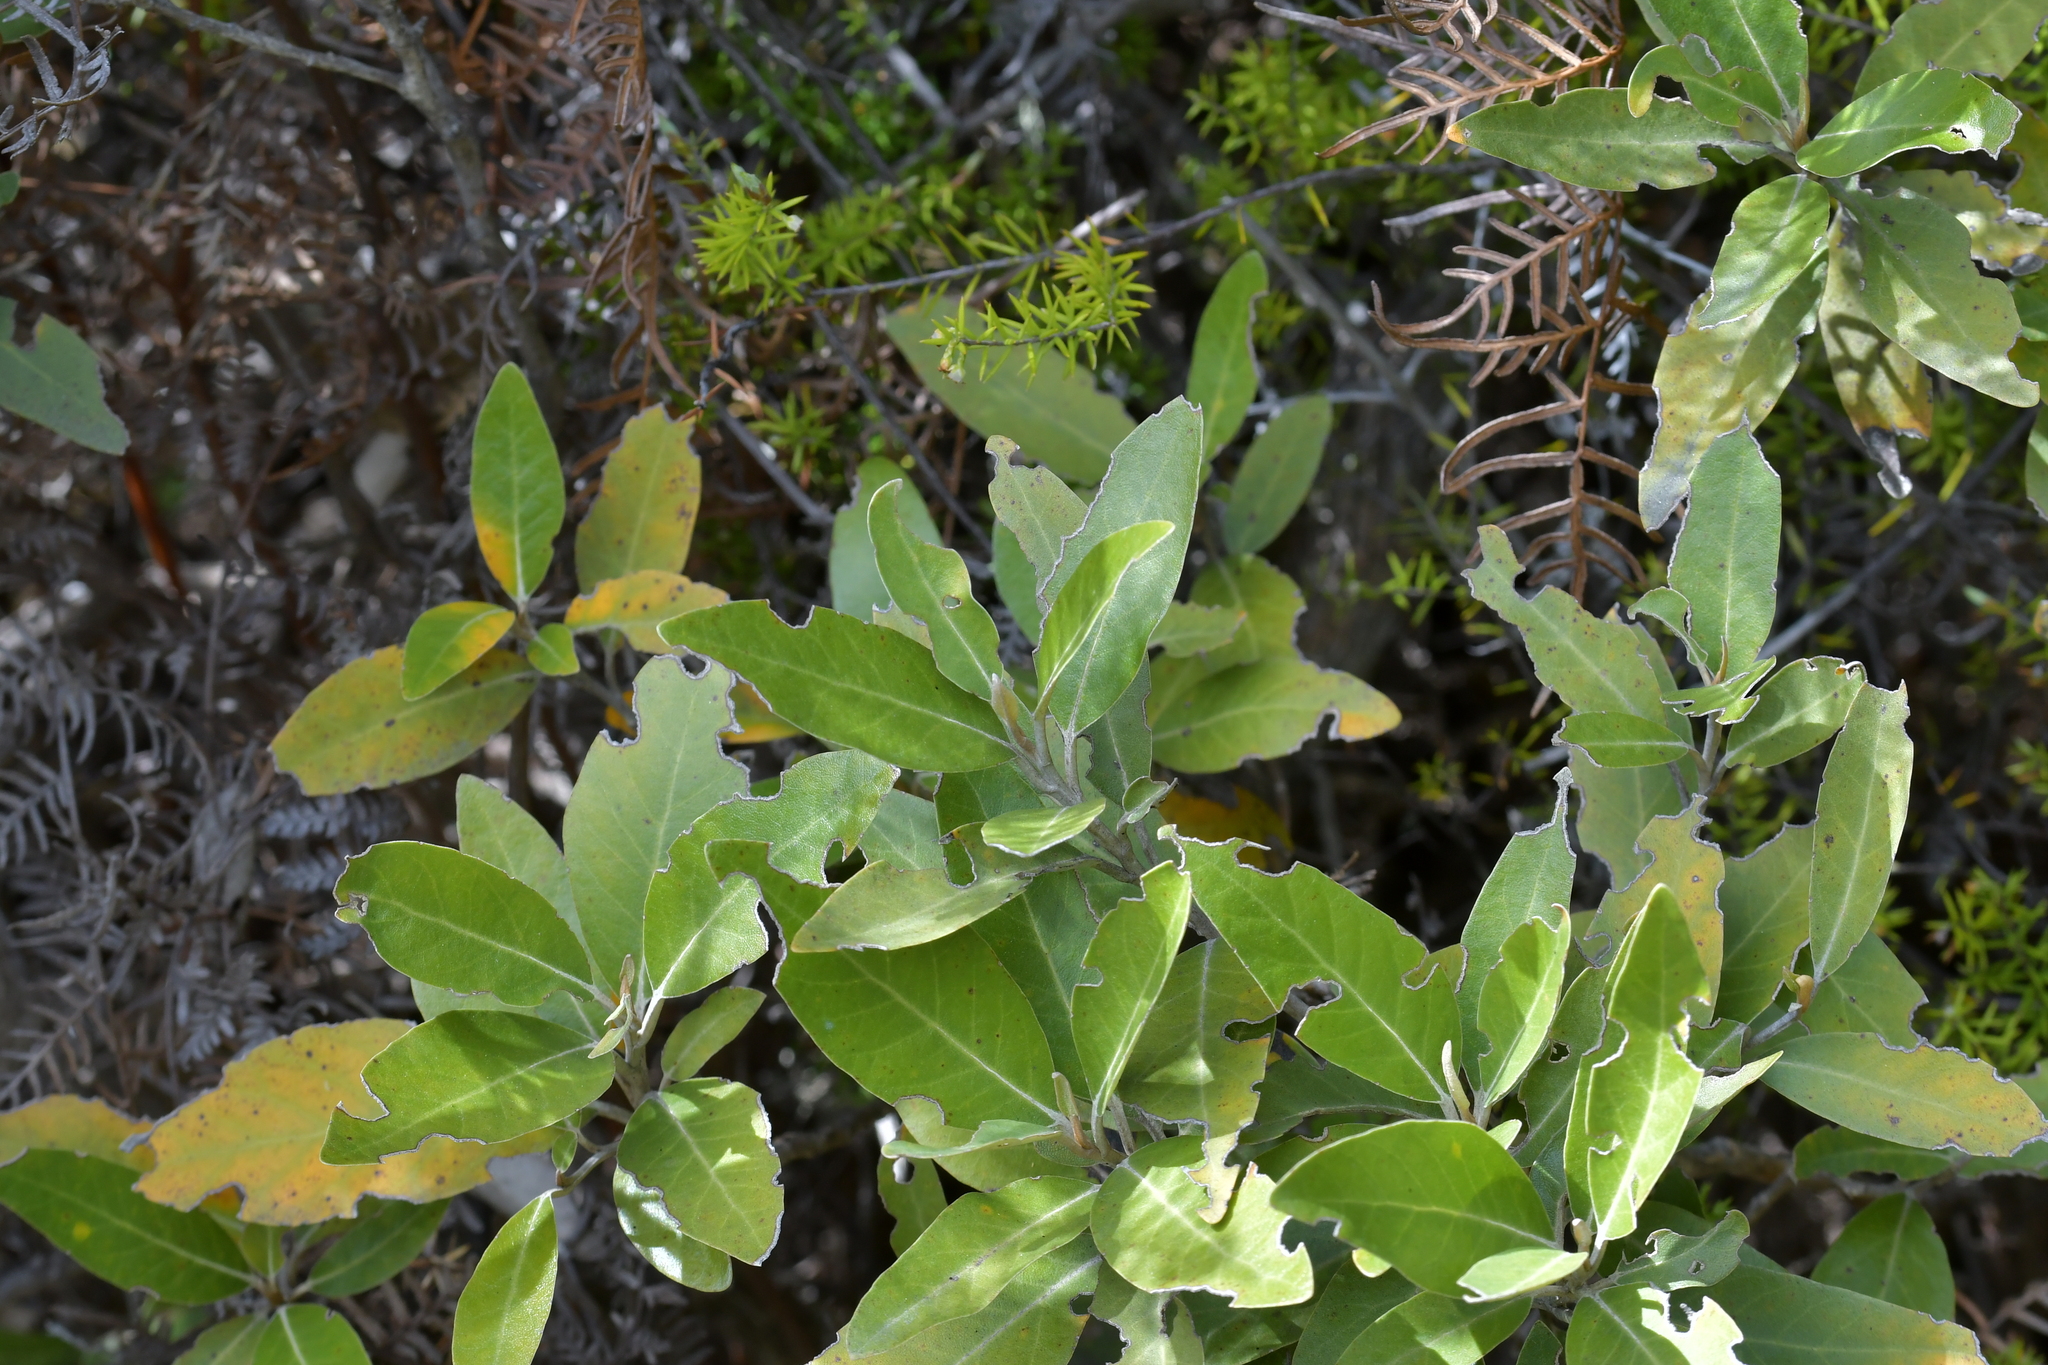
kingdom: Plantae
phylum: Tracheophyta
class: Magnoliopsida
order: Asterales
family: Asteraceae
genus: Olearia
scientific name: Olearia avicenniifolia
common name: Mangrove-leaf daisybush
